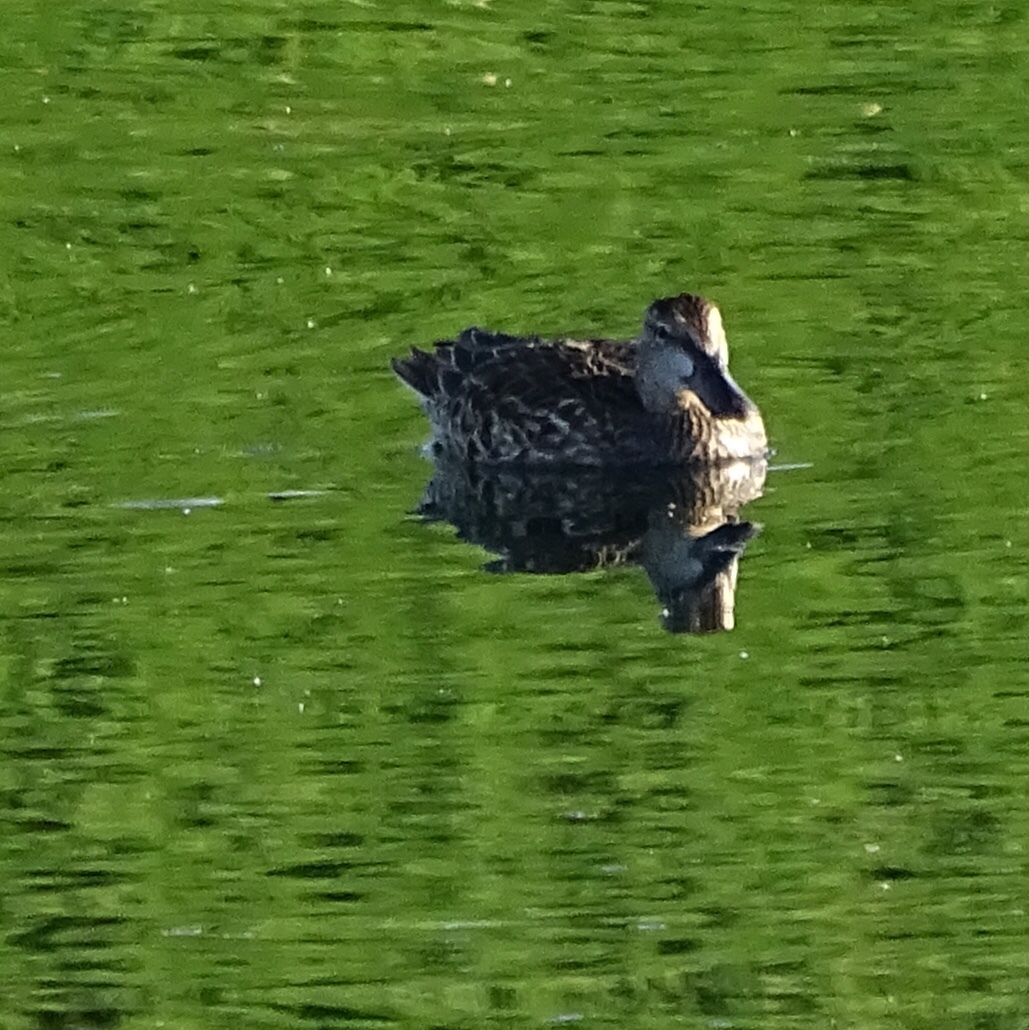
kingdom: Animalia
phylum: Chordata
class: Aves
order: Anseriformes
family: Anatidae
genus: Spatula
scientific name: Spatula discors
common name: Blue-winged teal
